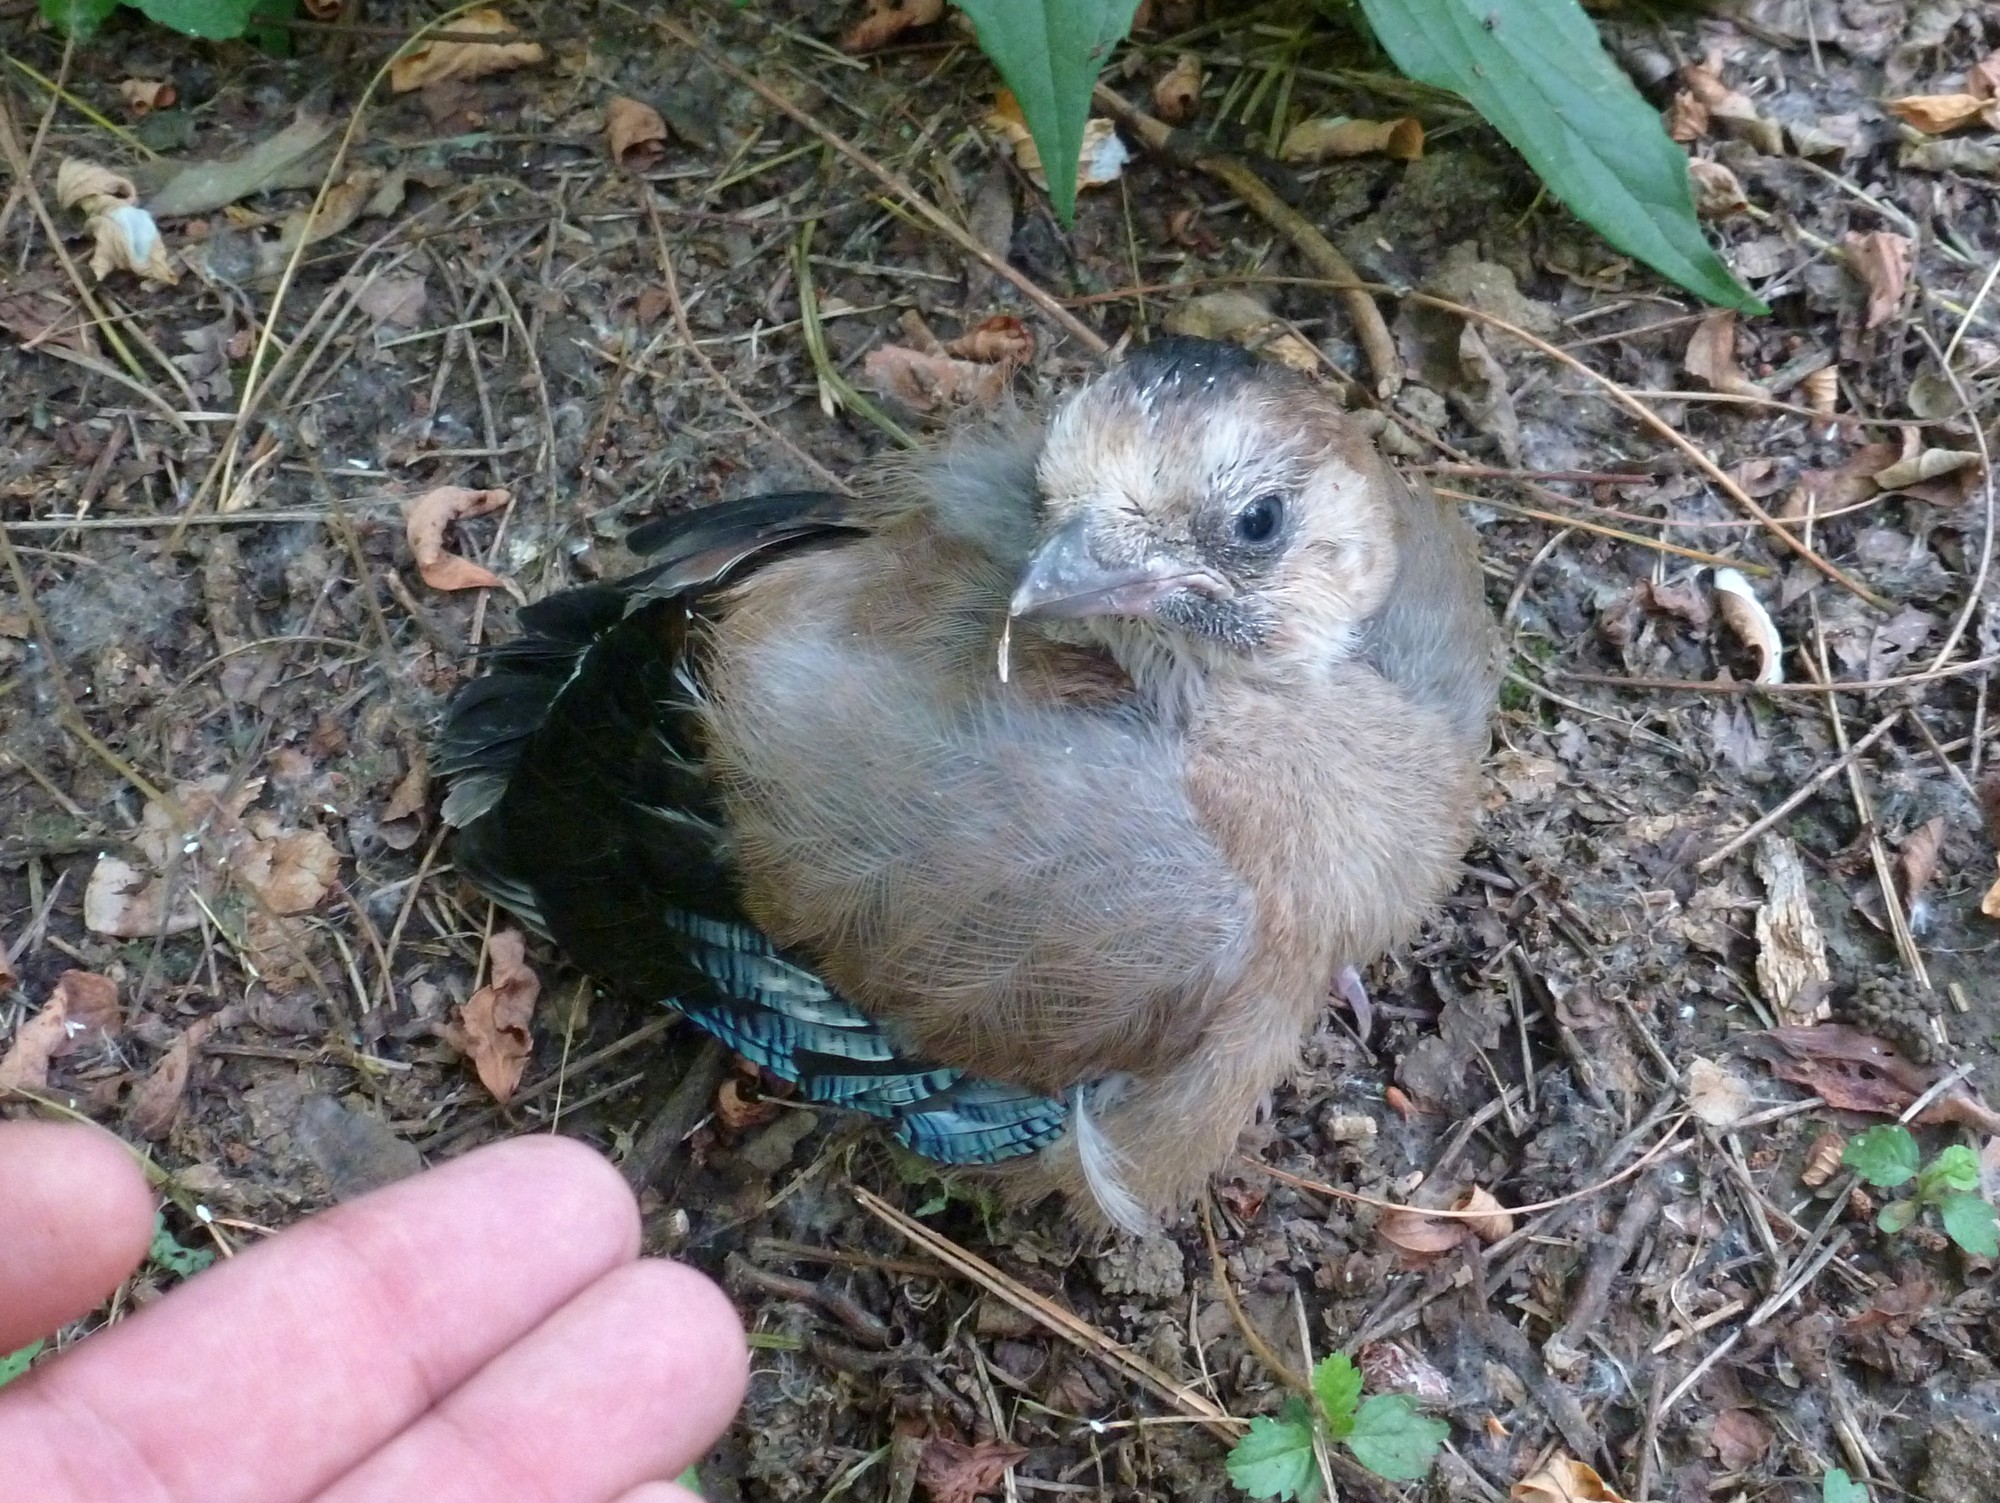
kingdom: Animalia
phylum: Chordata
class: Aves
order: Passeriformes
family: Corvidae
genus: Garrulus
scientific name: Garrulus glandarius
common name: Eurasian jay
